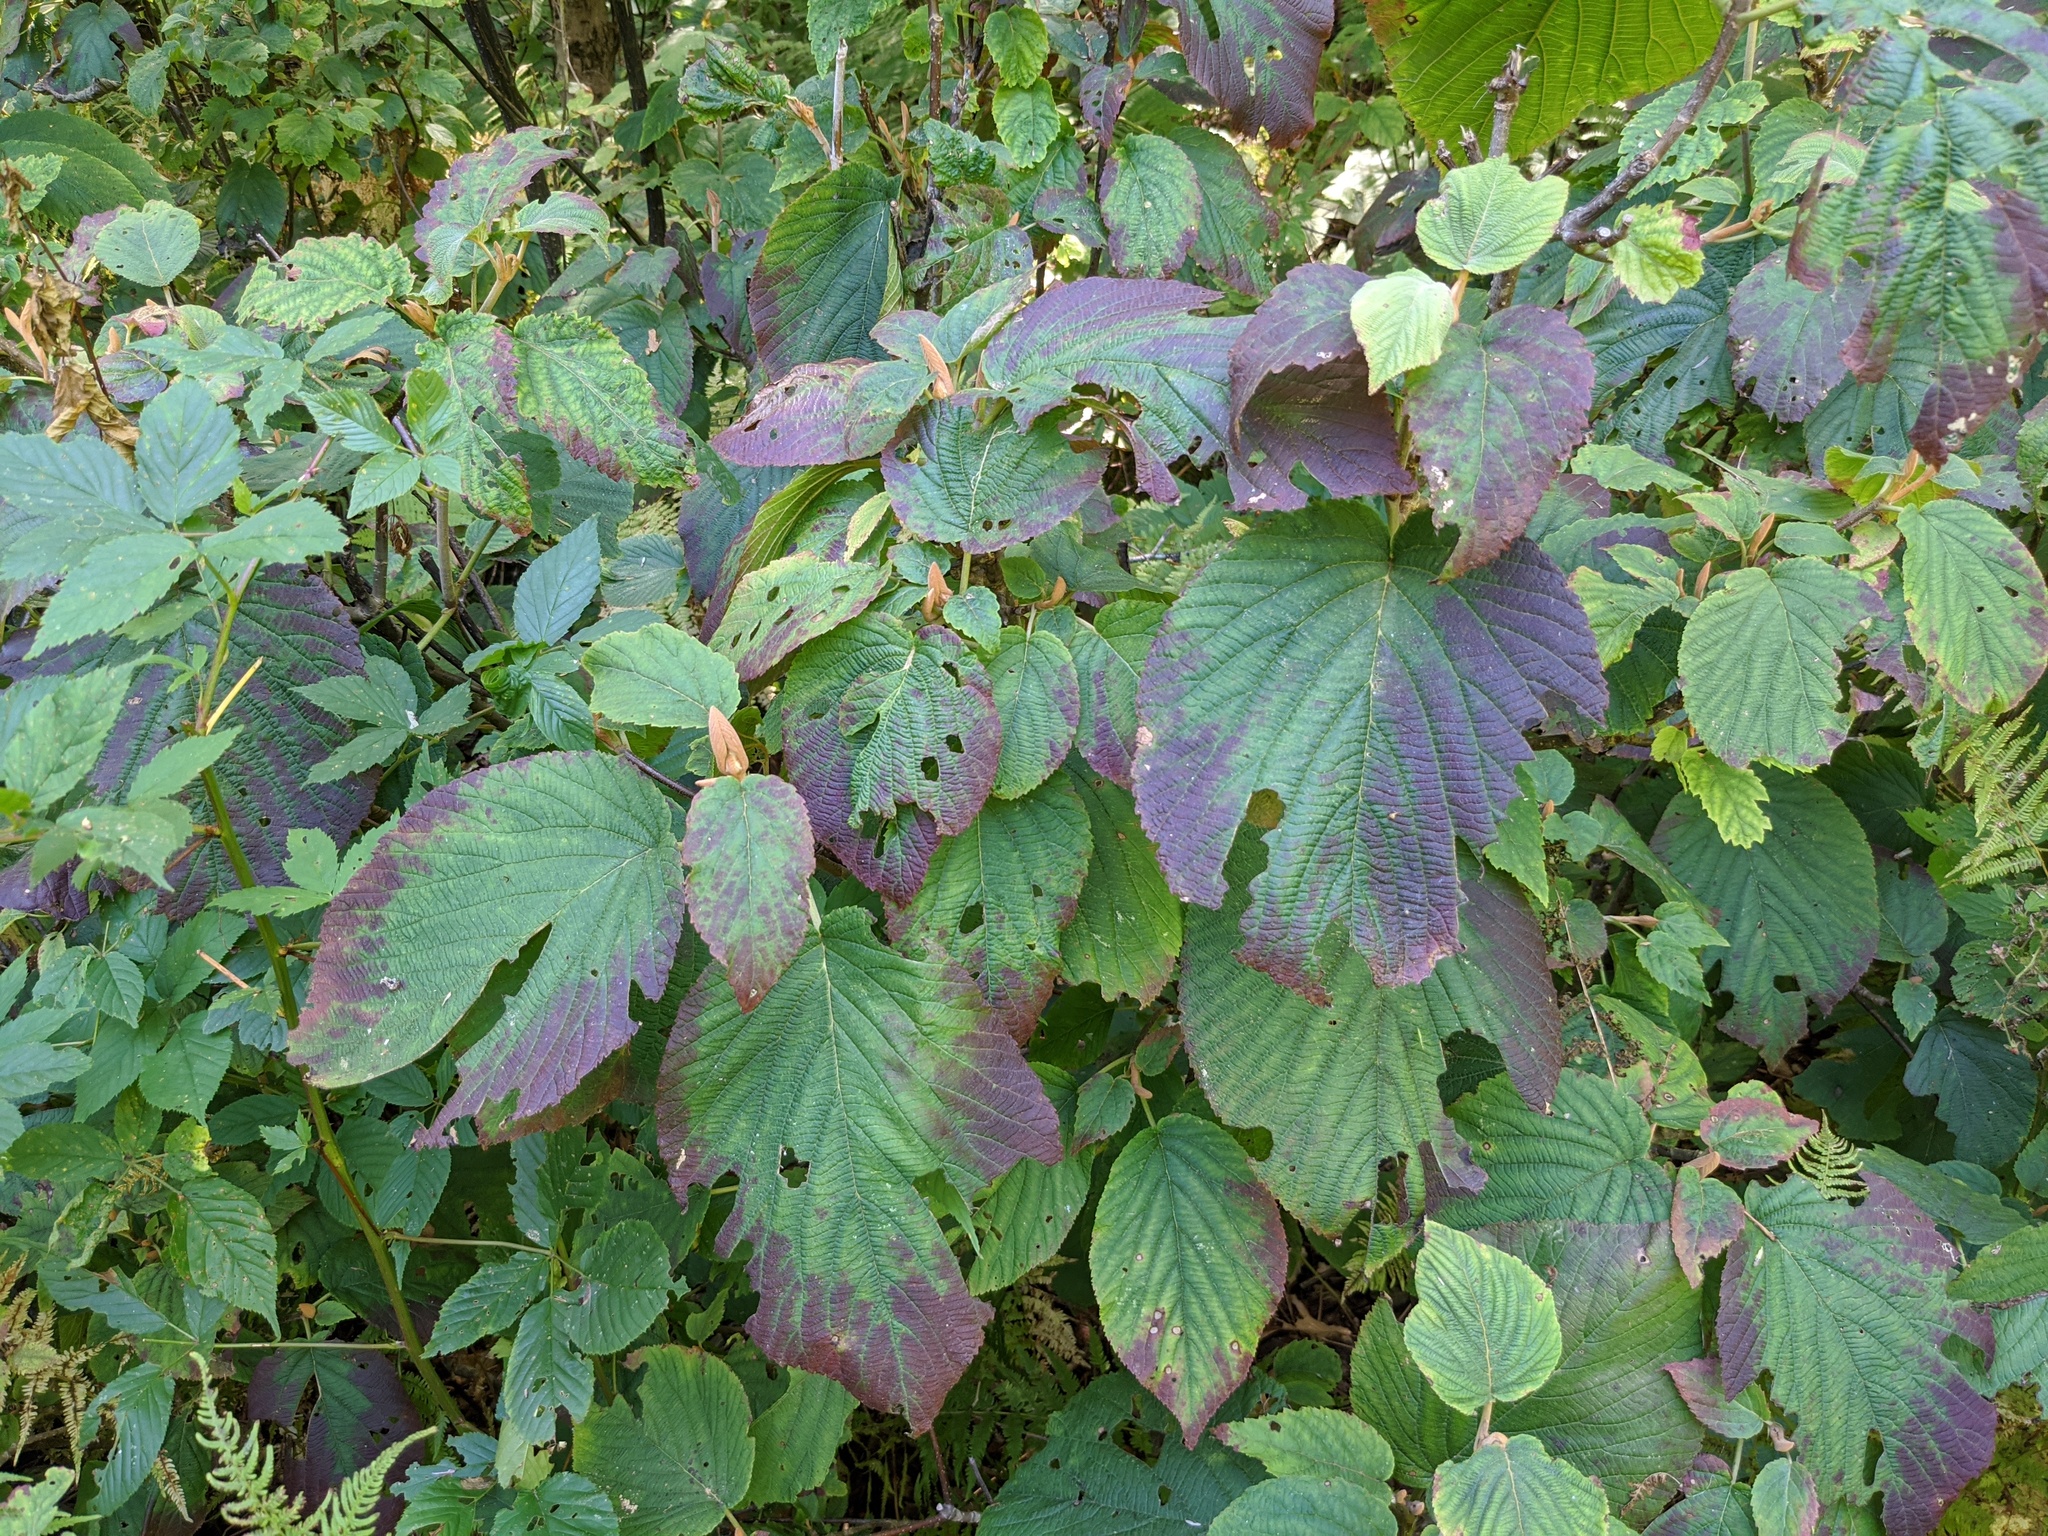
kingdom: Plantae
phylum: Tracheophyta
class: Magnoliopsida
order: Dipsacales
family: Viburnaceae
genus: Viburnum
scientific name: Viburnum lantanoides
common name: Hobblebush
